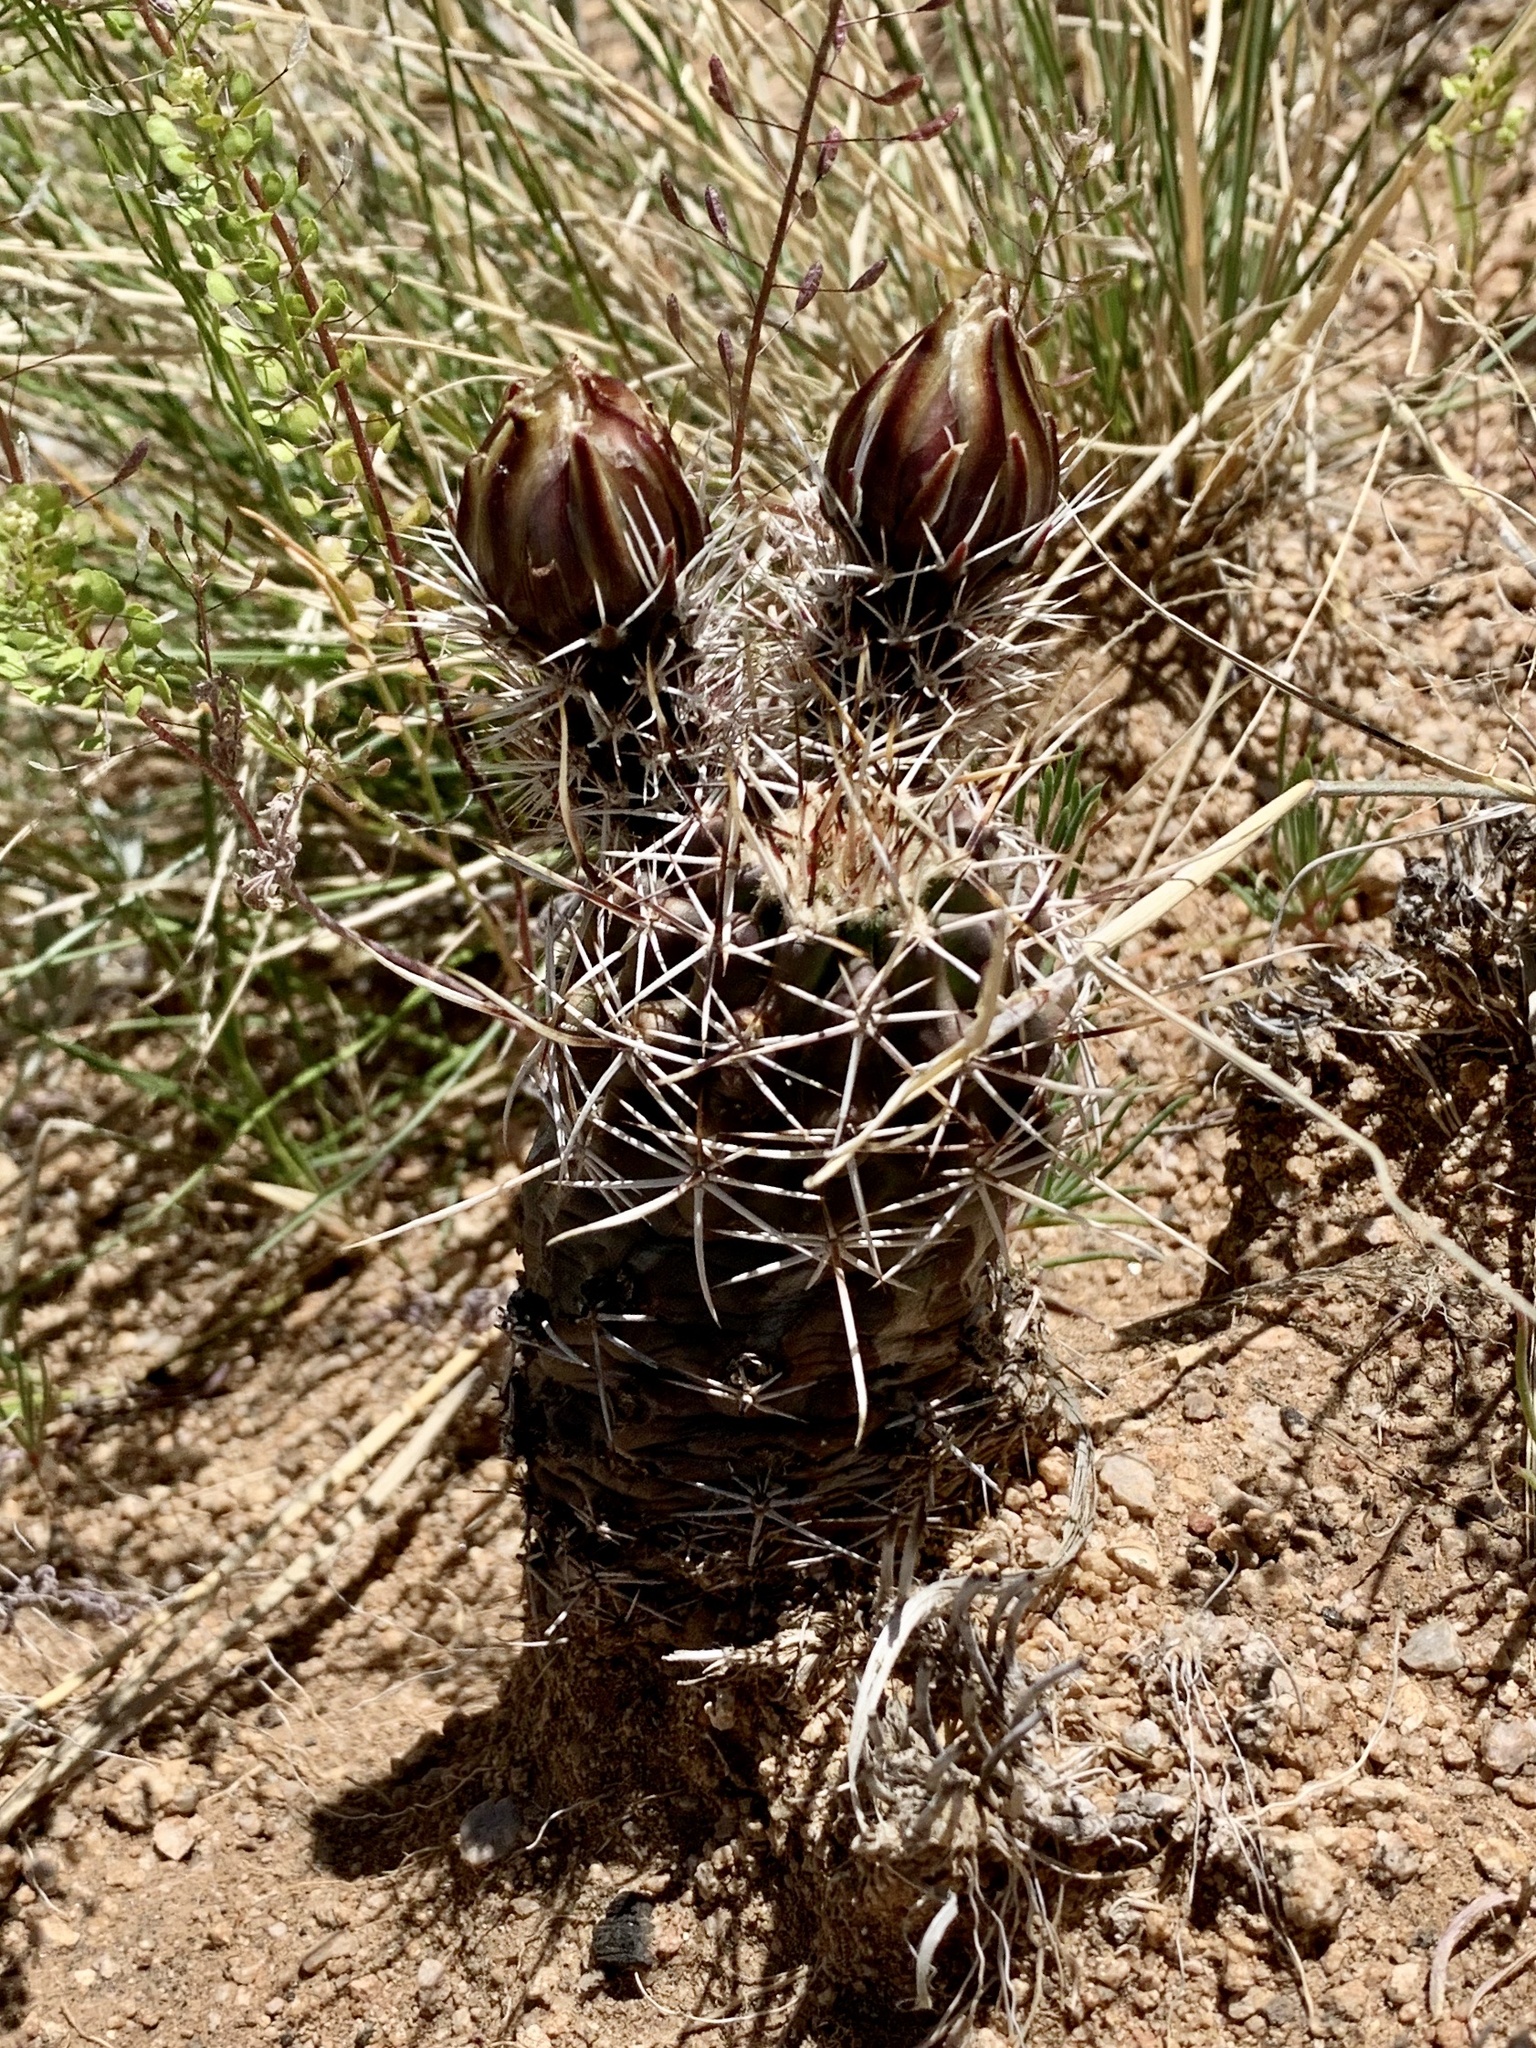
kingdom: Plantae
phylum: Tracheophyta
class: Magnoliopsida
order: Caryophyllales
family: Cactaceae
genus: Echinocereus
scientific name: Echinocereus fendleri
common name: Fendler's hedgehog cactus
